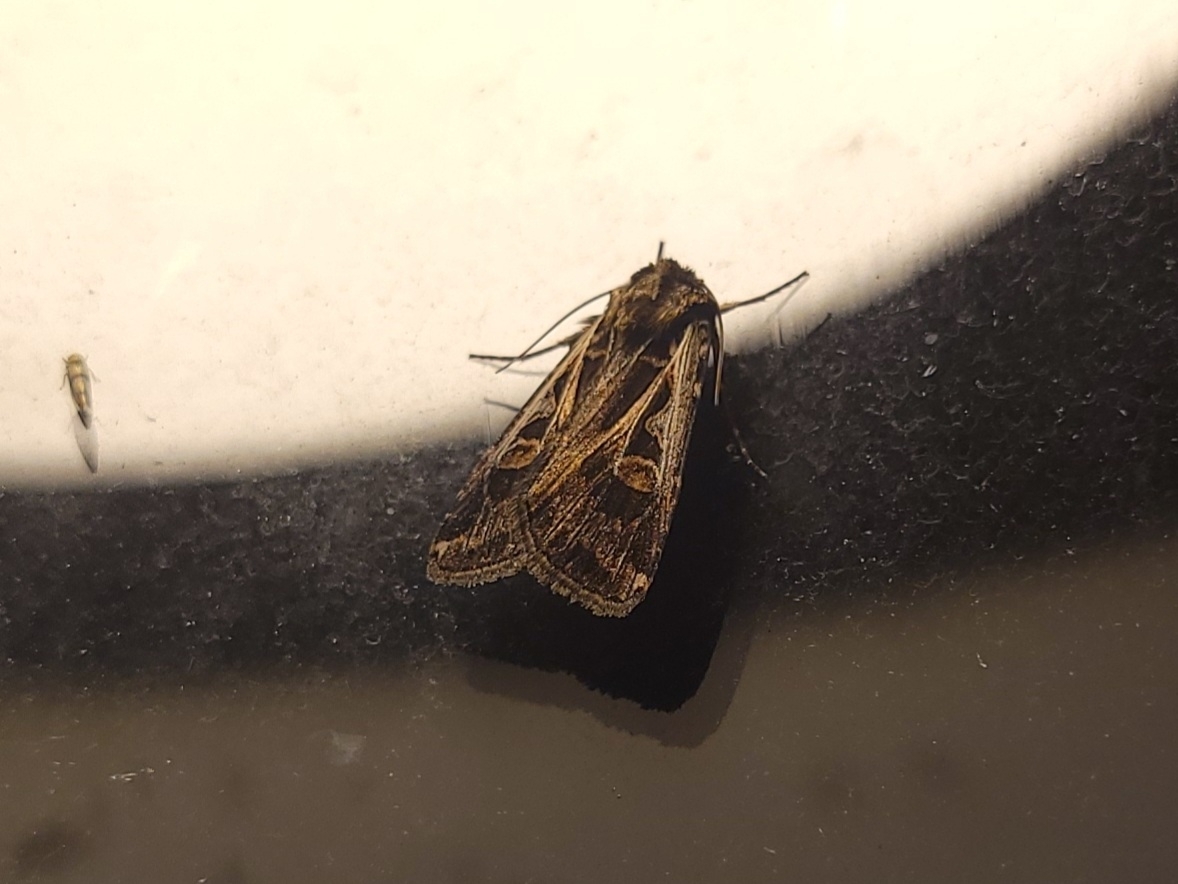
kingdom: Animalia
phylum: Arthropoda
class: Insecta
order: Lepidoptera
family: Noctuidae
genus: Feltia
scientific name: Feltia jaculifera
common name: Dingy cutworm moth
